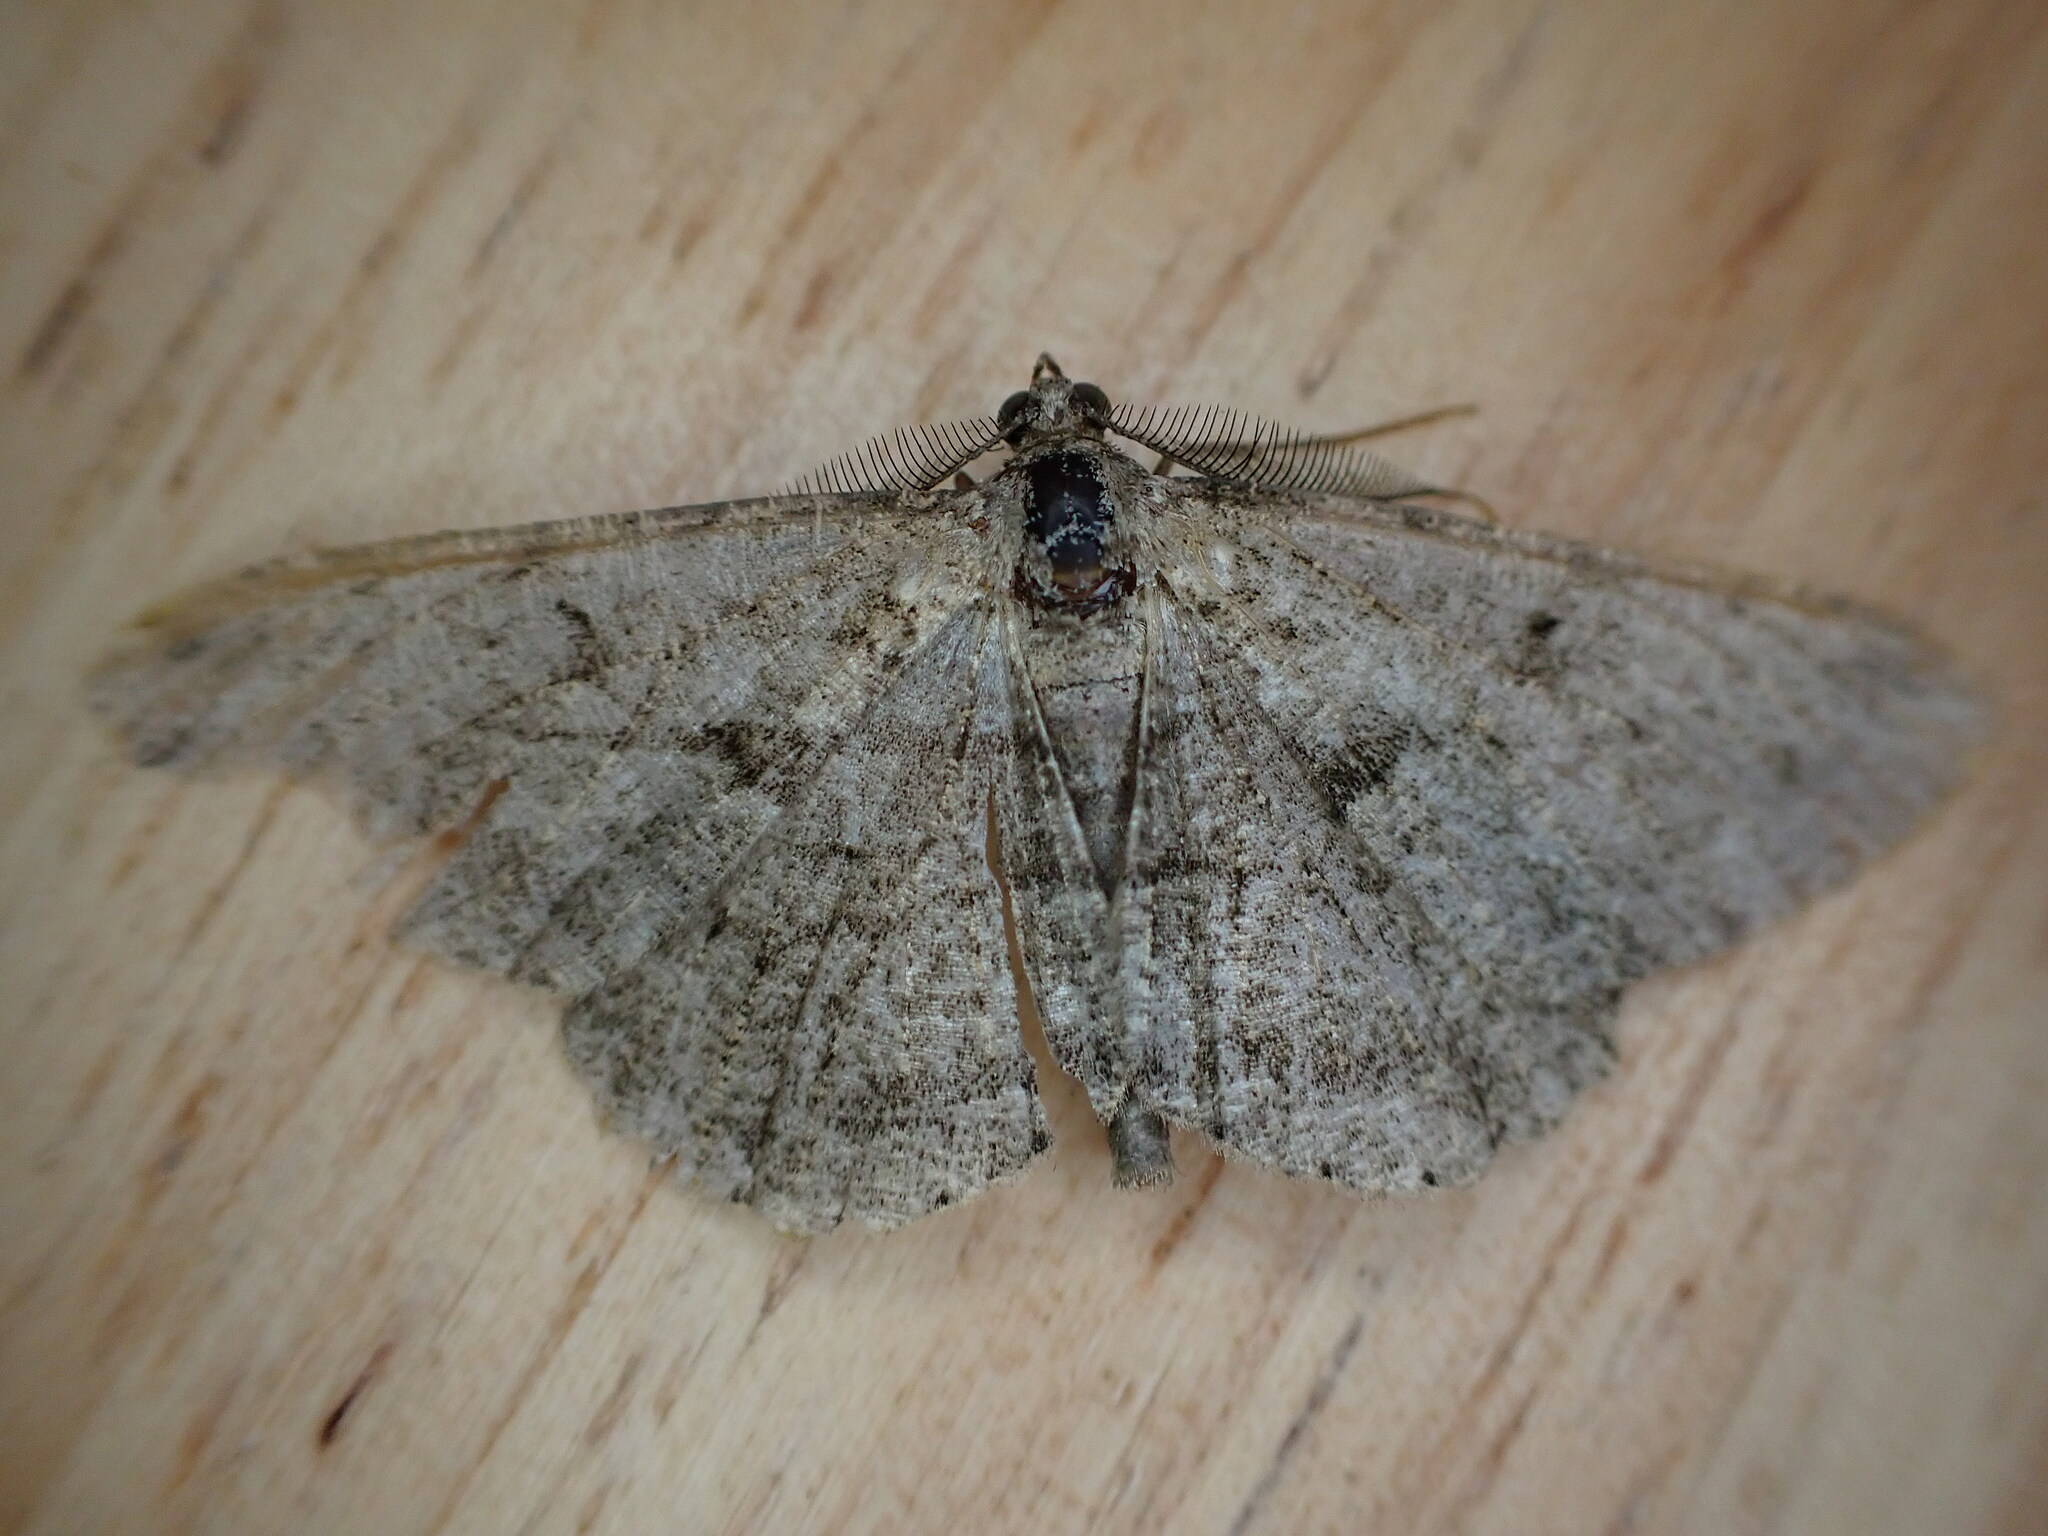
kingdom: Animalia
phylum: Arthropoda
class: Insecta
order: Lepidoptera
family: Geometridae
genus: Peribatodes
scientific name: Peribatodes rhomboidaria
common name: Willow beauty
